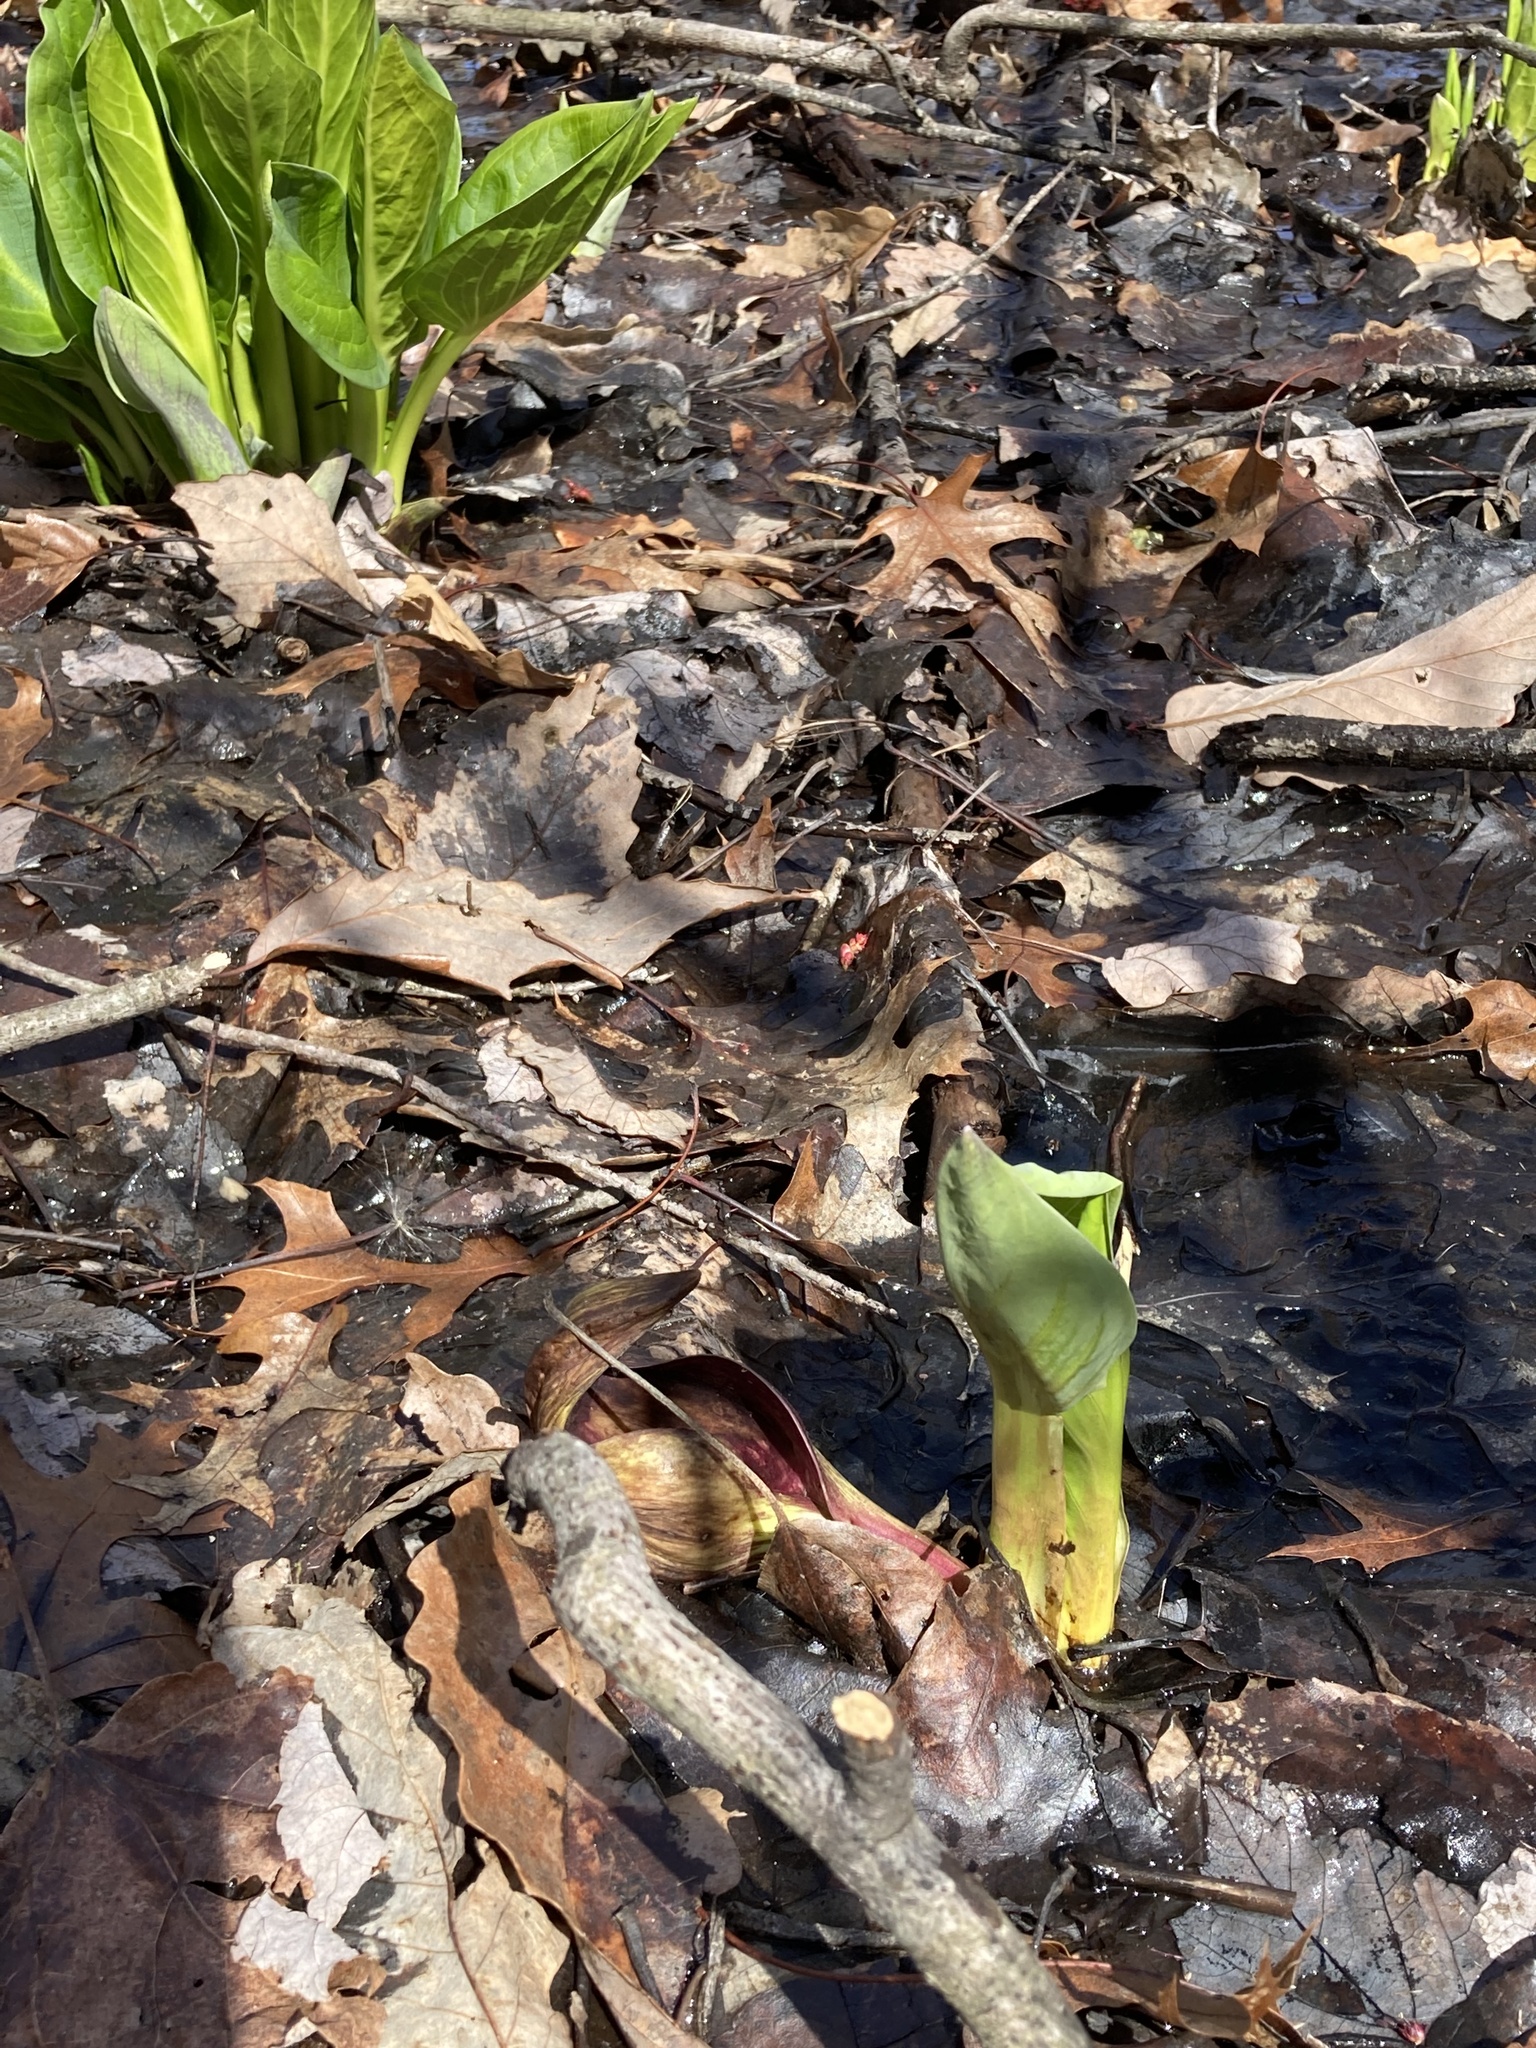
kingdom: Plantae
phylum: Tracheophyta
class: Liliopsida
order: Alismatales
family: Araceae
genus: Symplocarpus
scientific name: Symplocarpus foetidus
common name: Eastern skunk cabbage
